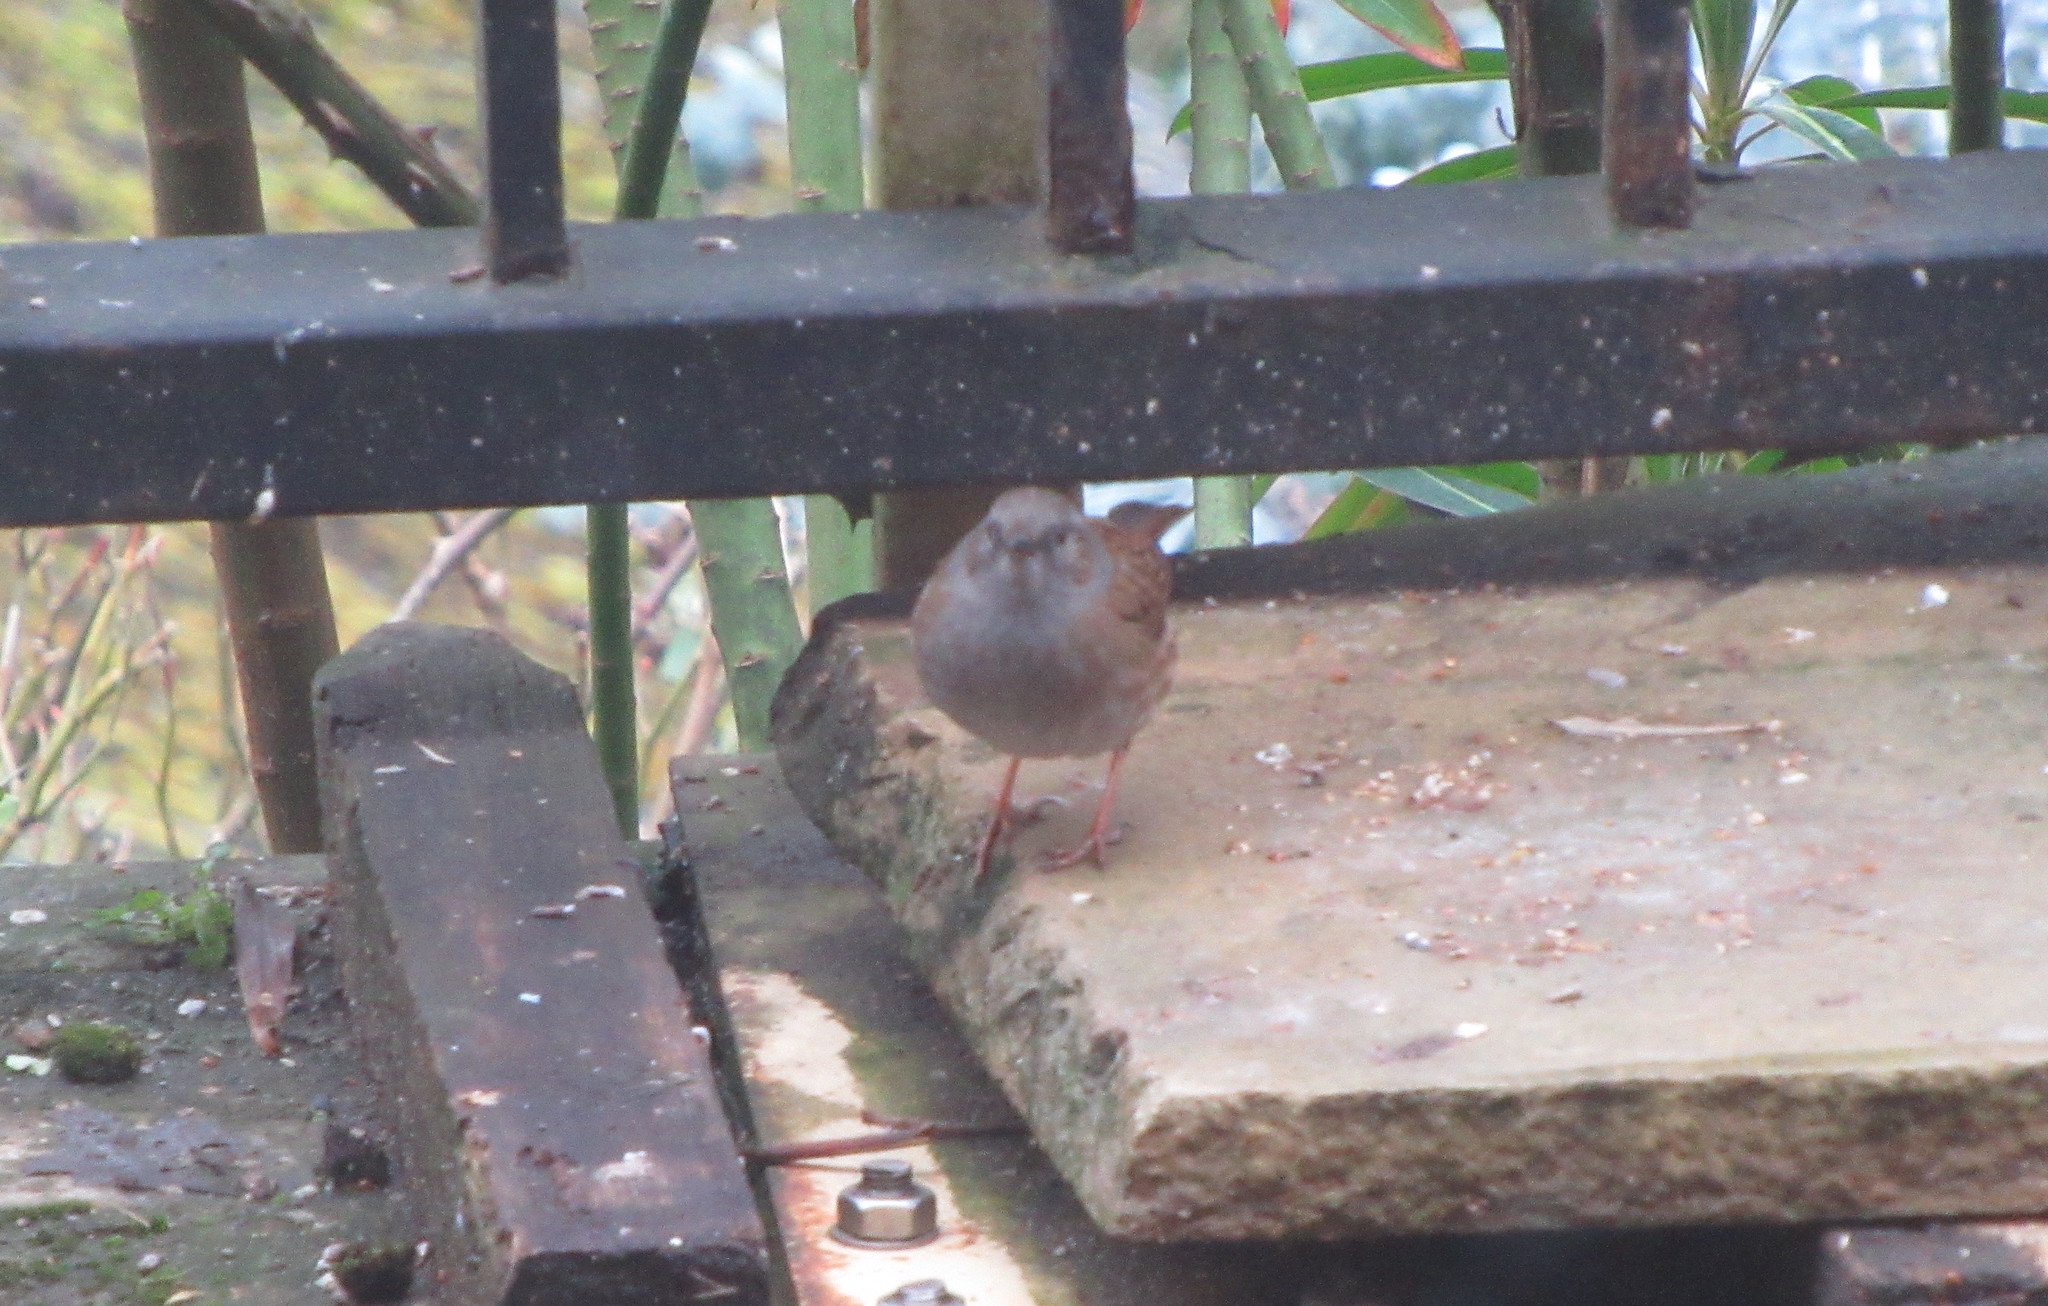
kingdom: Animalia
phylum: Chordata
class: Aves
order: Passeriformes
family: Prunellidae
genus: Prunella
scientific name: Prunella modularis
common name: Dunnock
